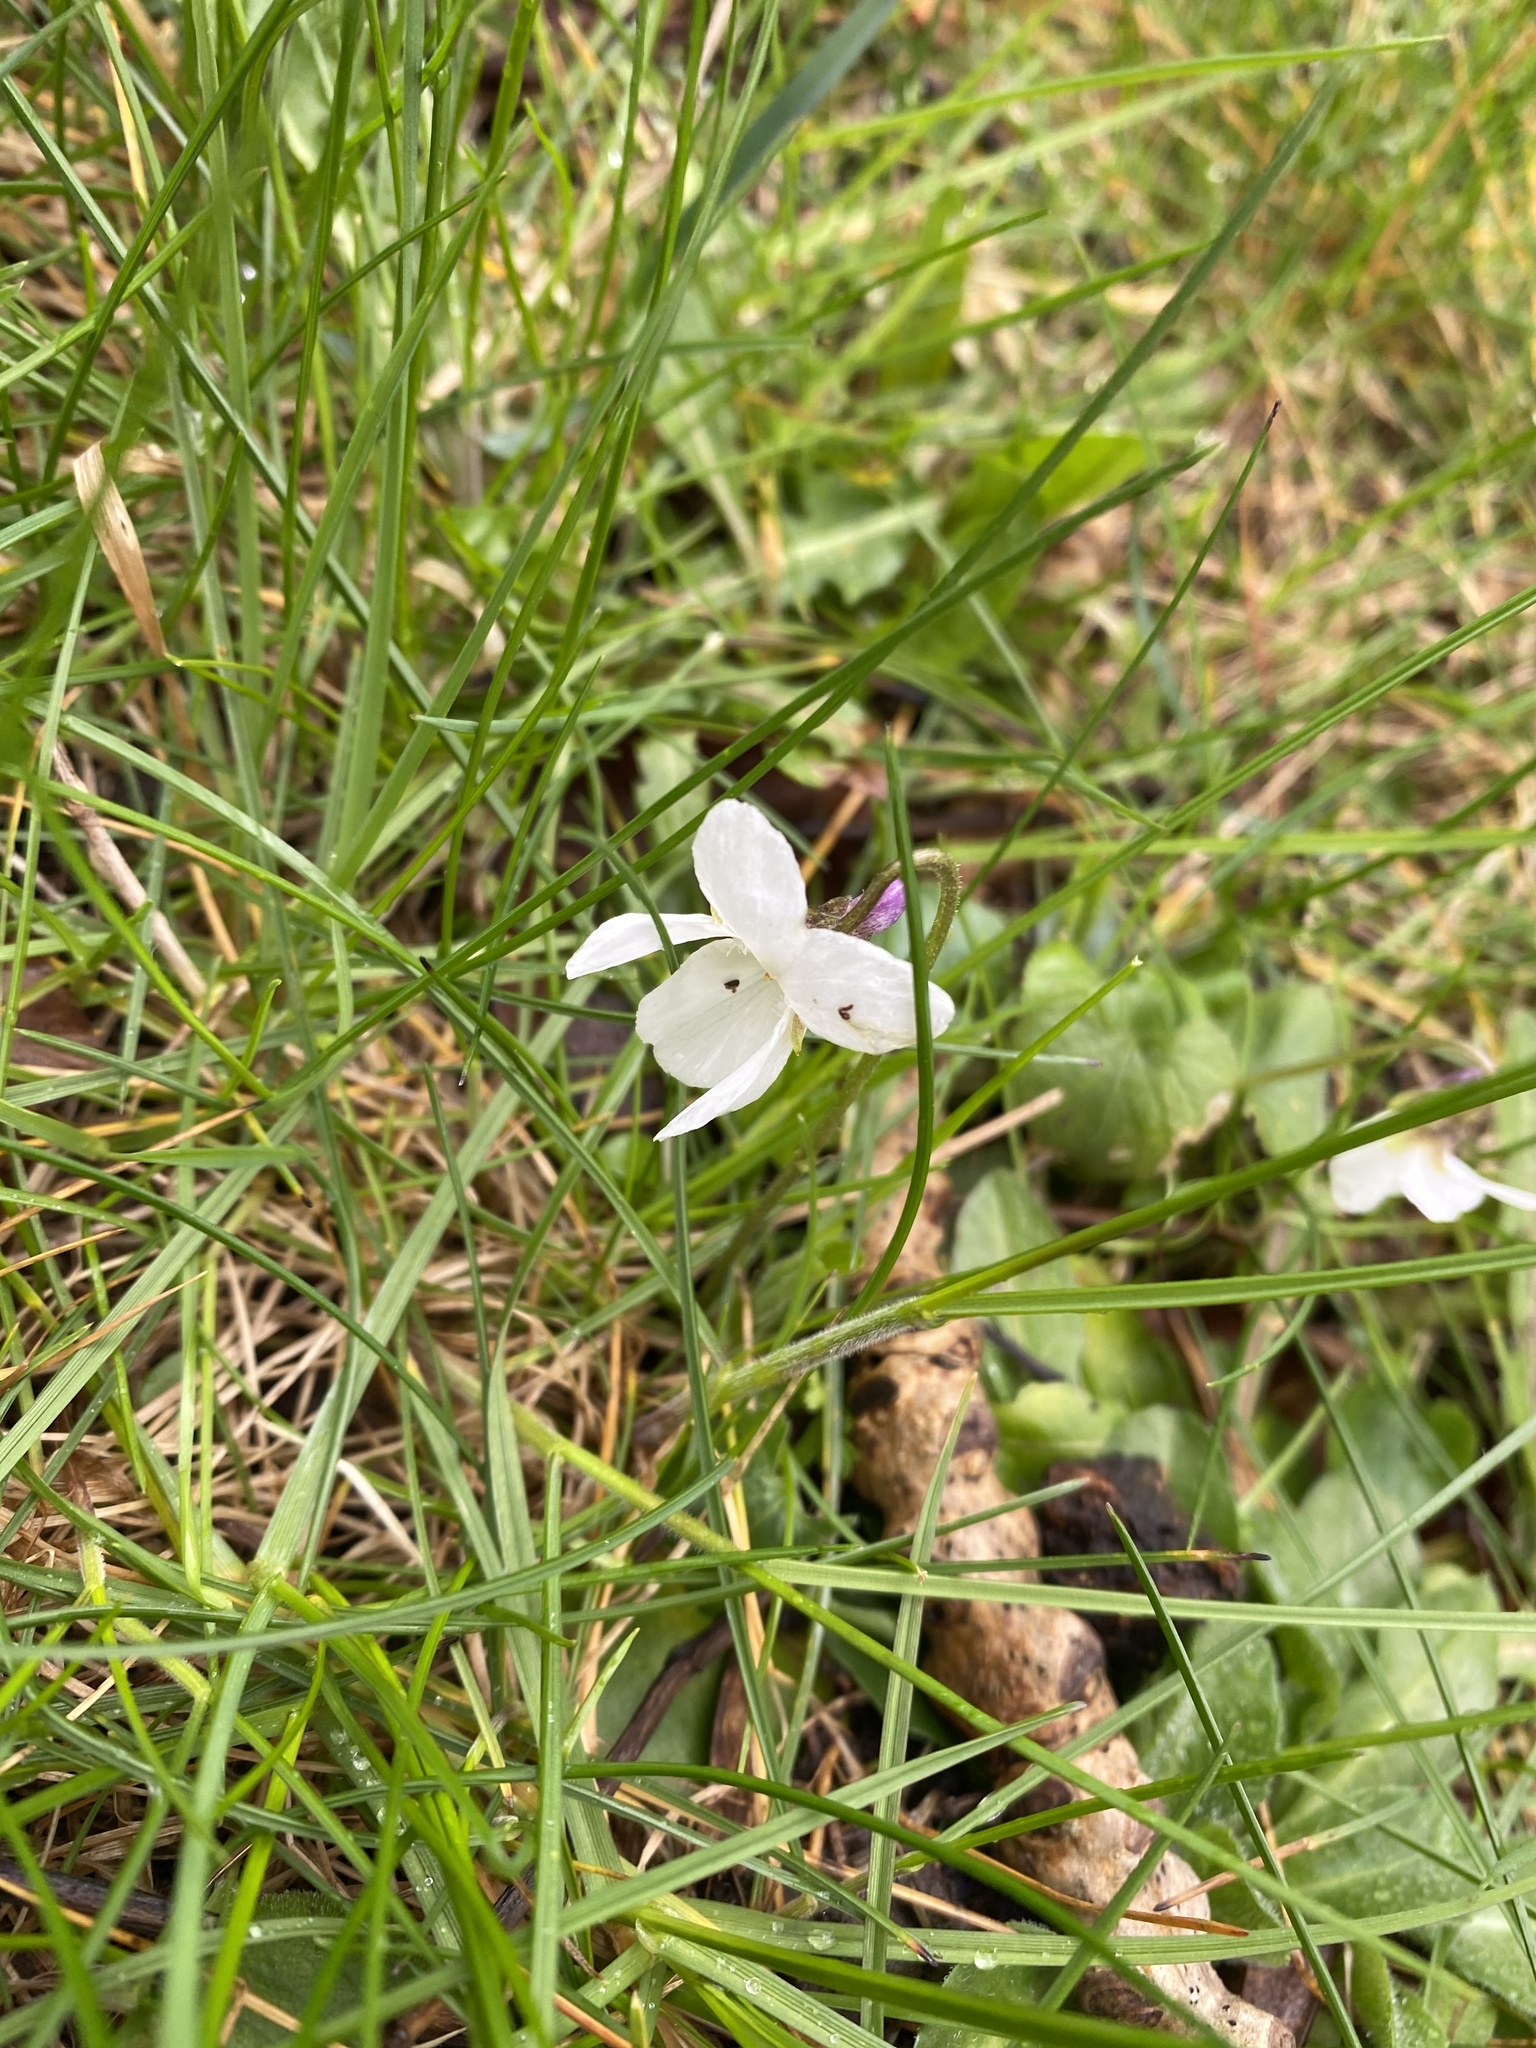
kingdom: Plantae
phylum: Tracheophyta
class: Magnoliopsida
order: Malpighiales
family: Violaceae
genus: Viola
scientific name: Viola odorata
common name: Sweet violet
